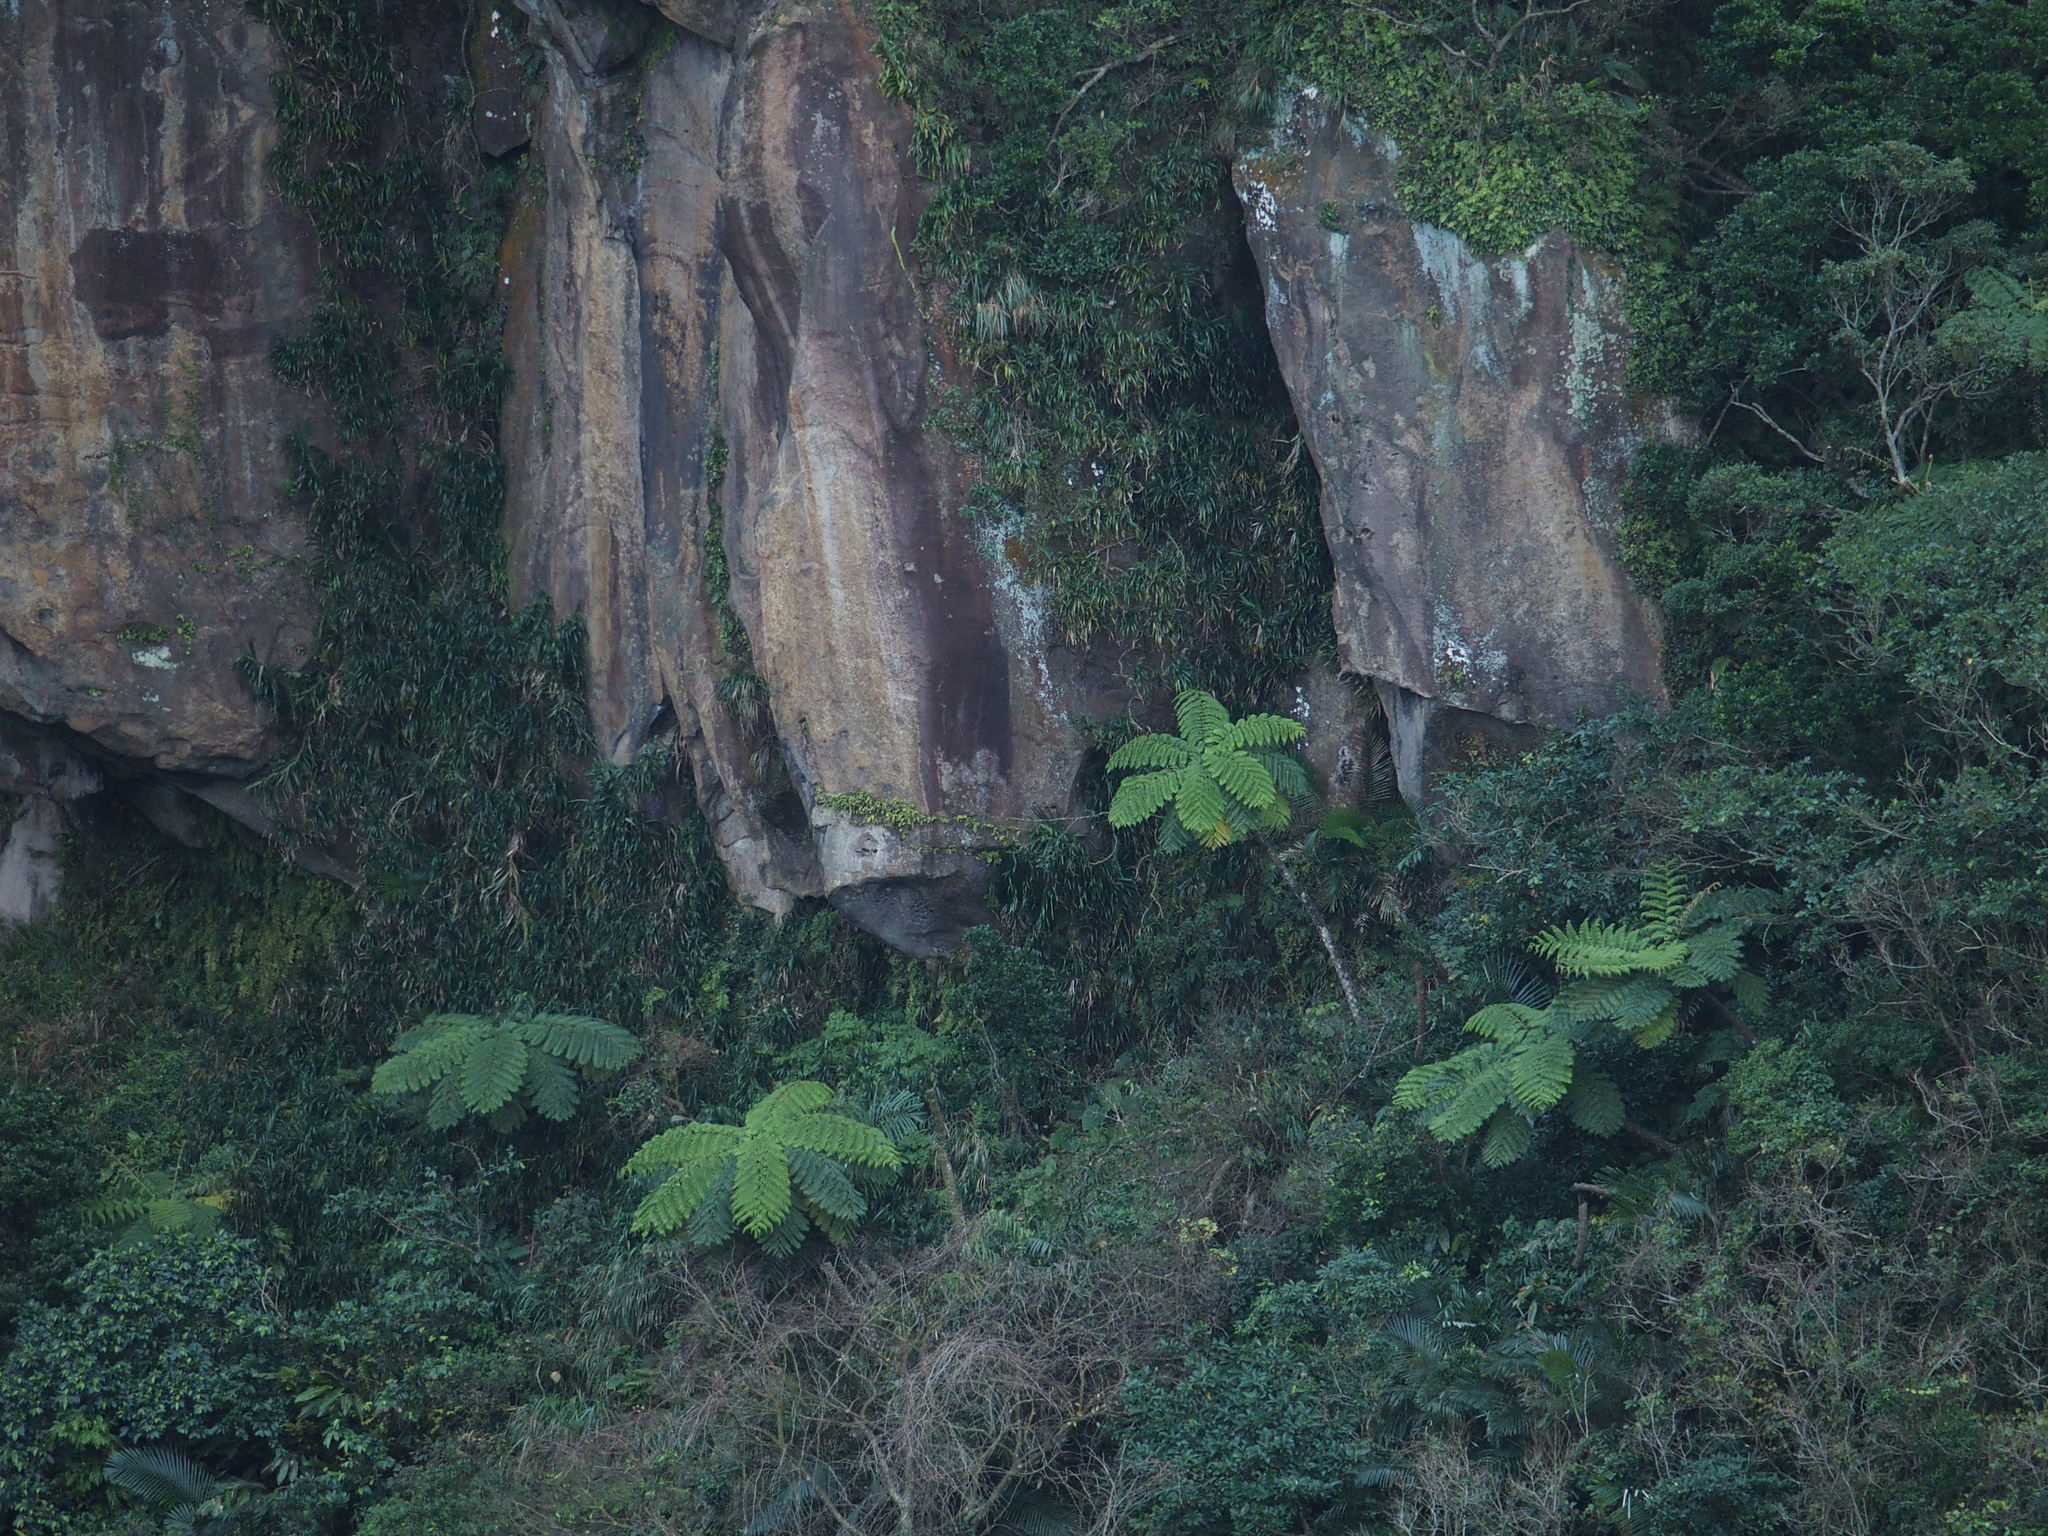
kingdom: Plantae
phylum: Tracheophyta
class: Polypodiopsida
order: Cyatheales
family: Cyatheaceae
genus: Alsophila
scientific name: Alsophila lepifera
